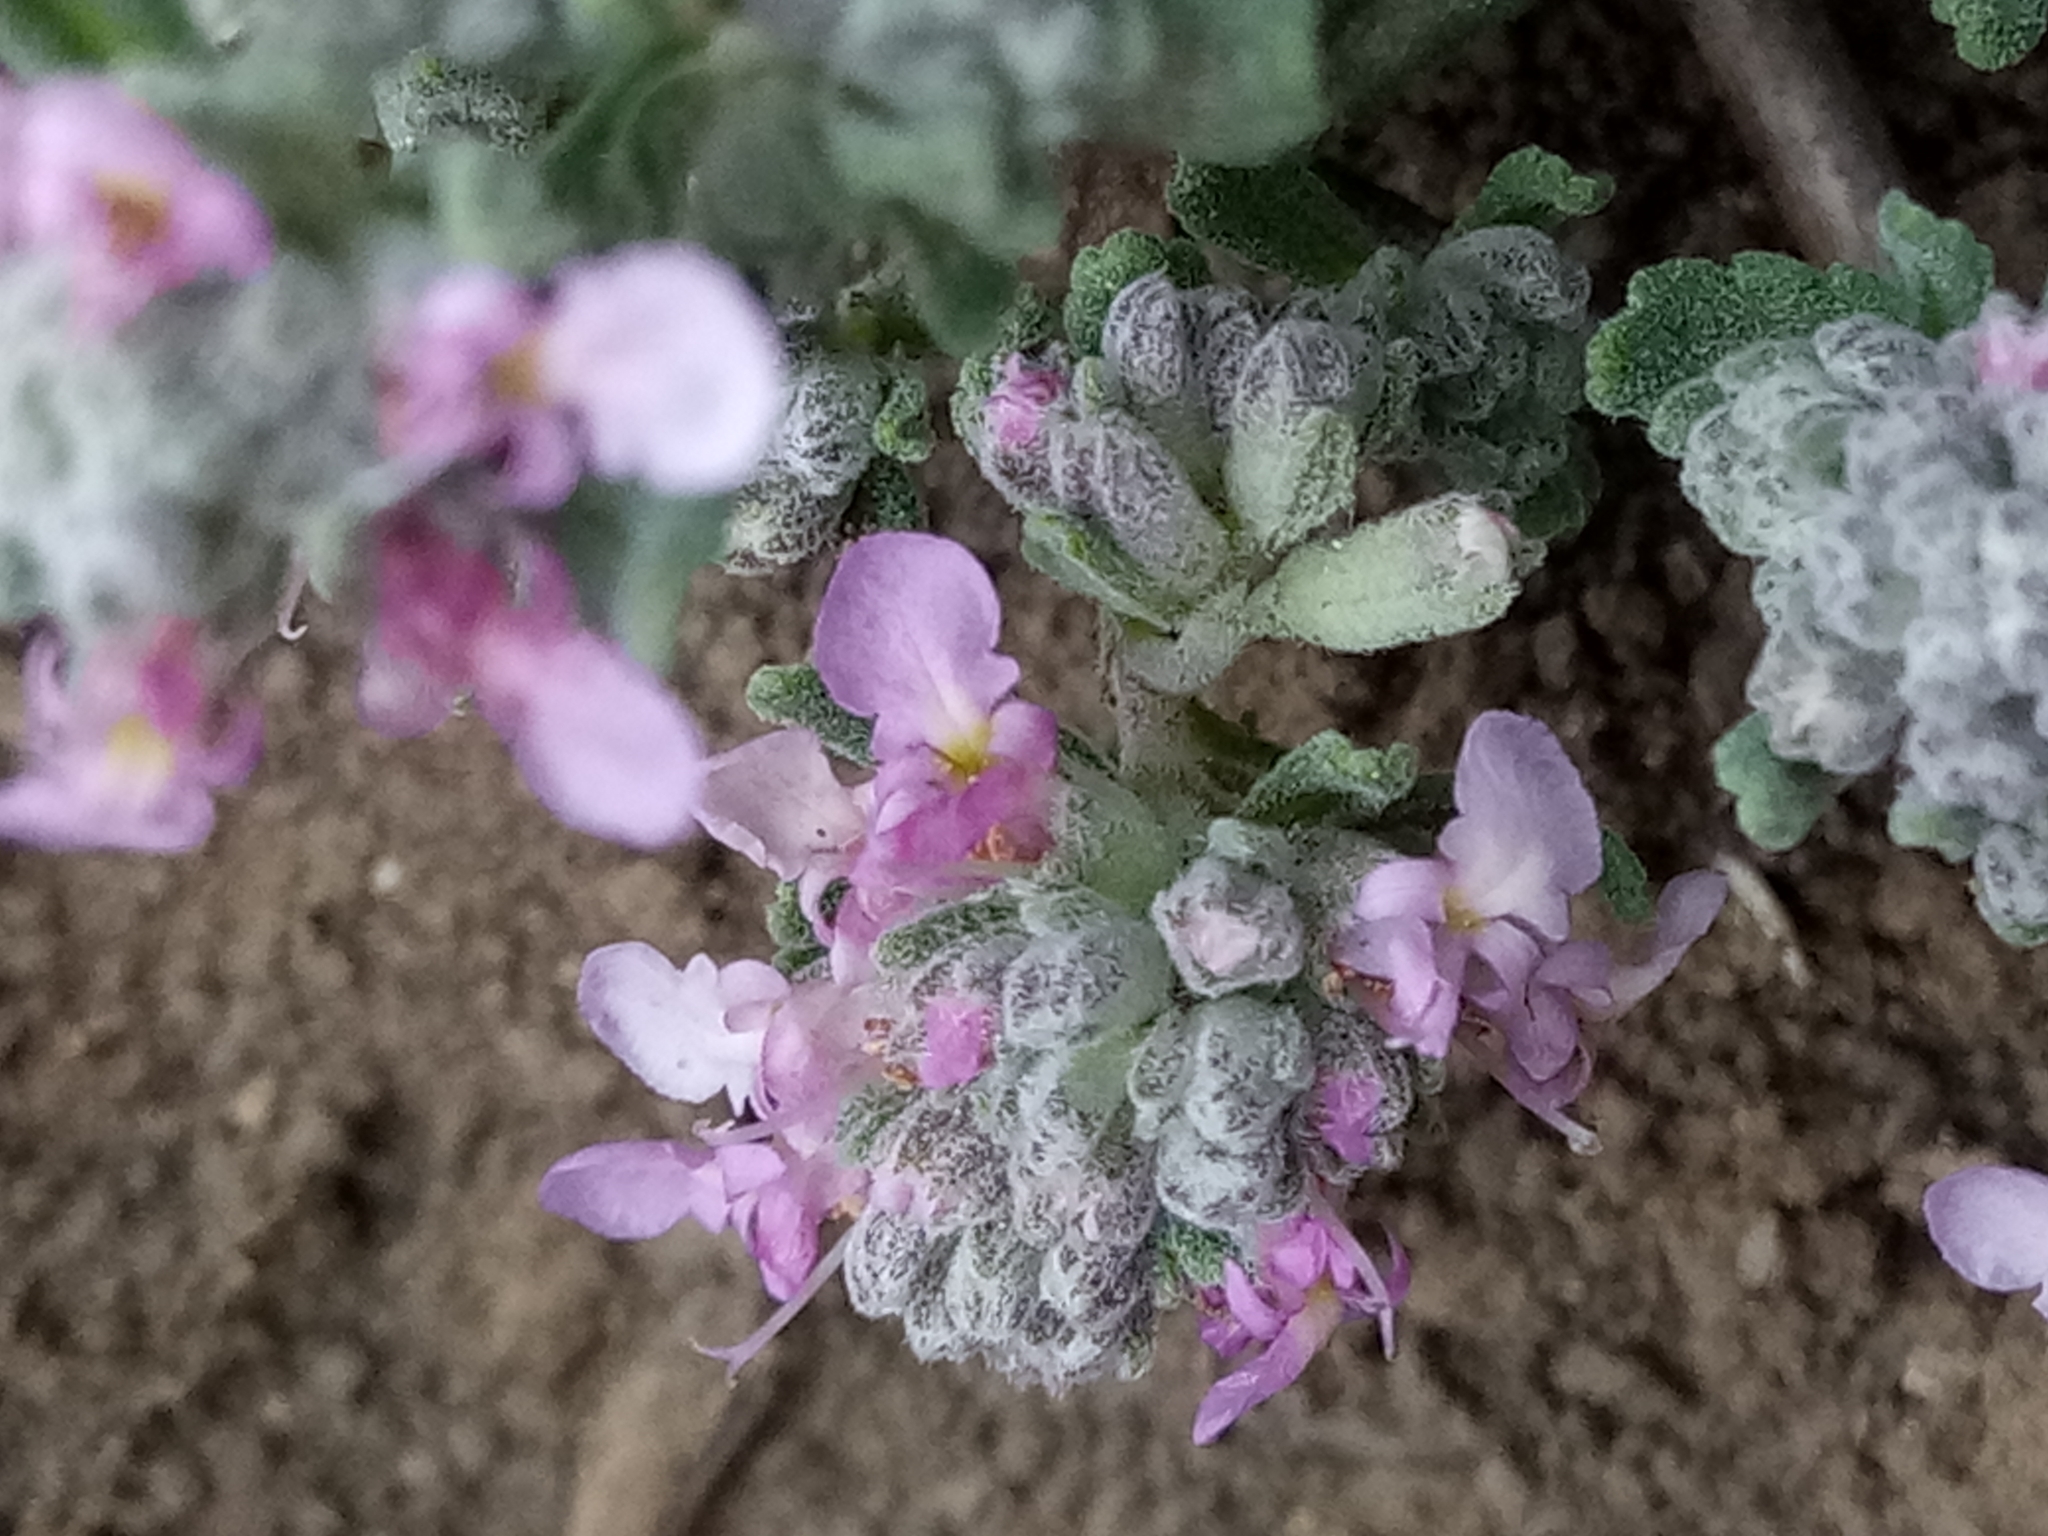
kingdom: Plantae
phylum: Tracheophyta
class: Magnoliopsida
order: Lamiales
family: Lamiaceae
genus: Teucrium
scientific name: Teucrium capitatum
